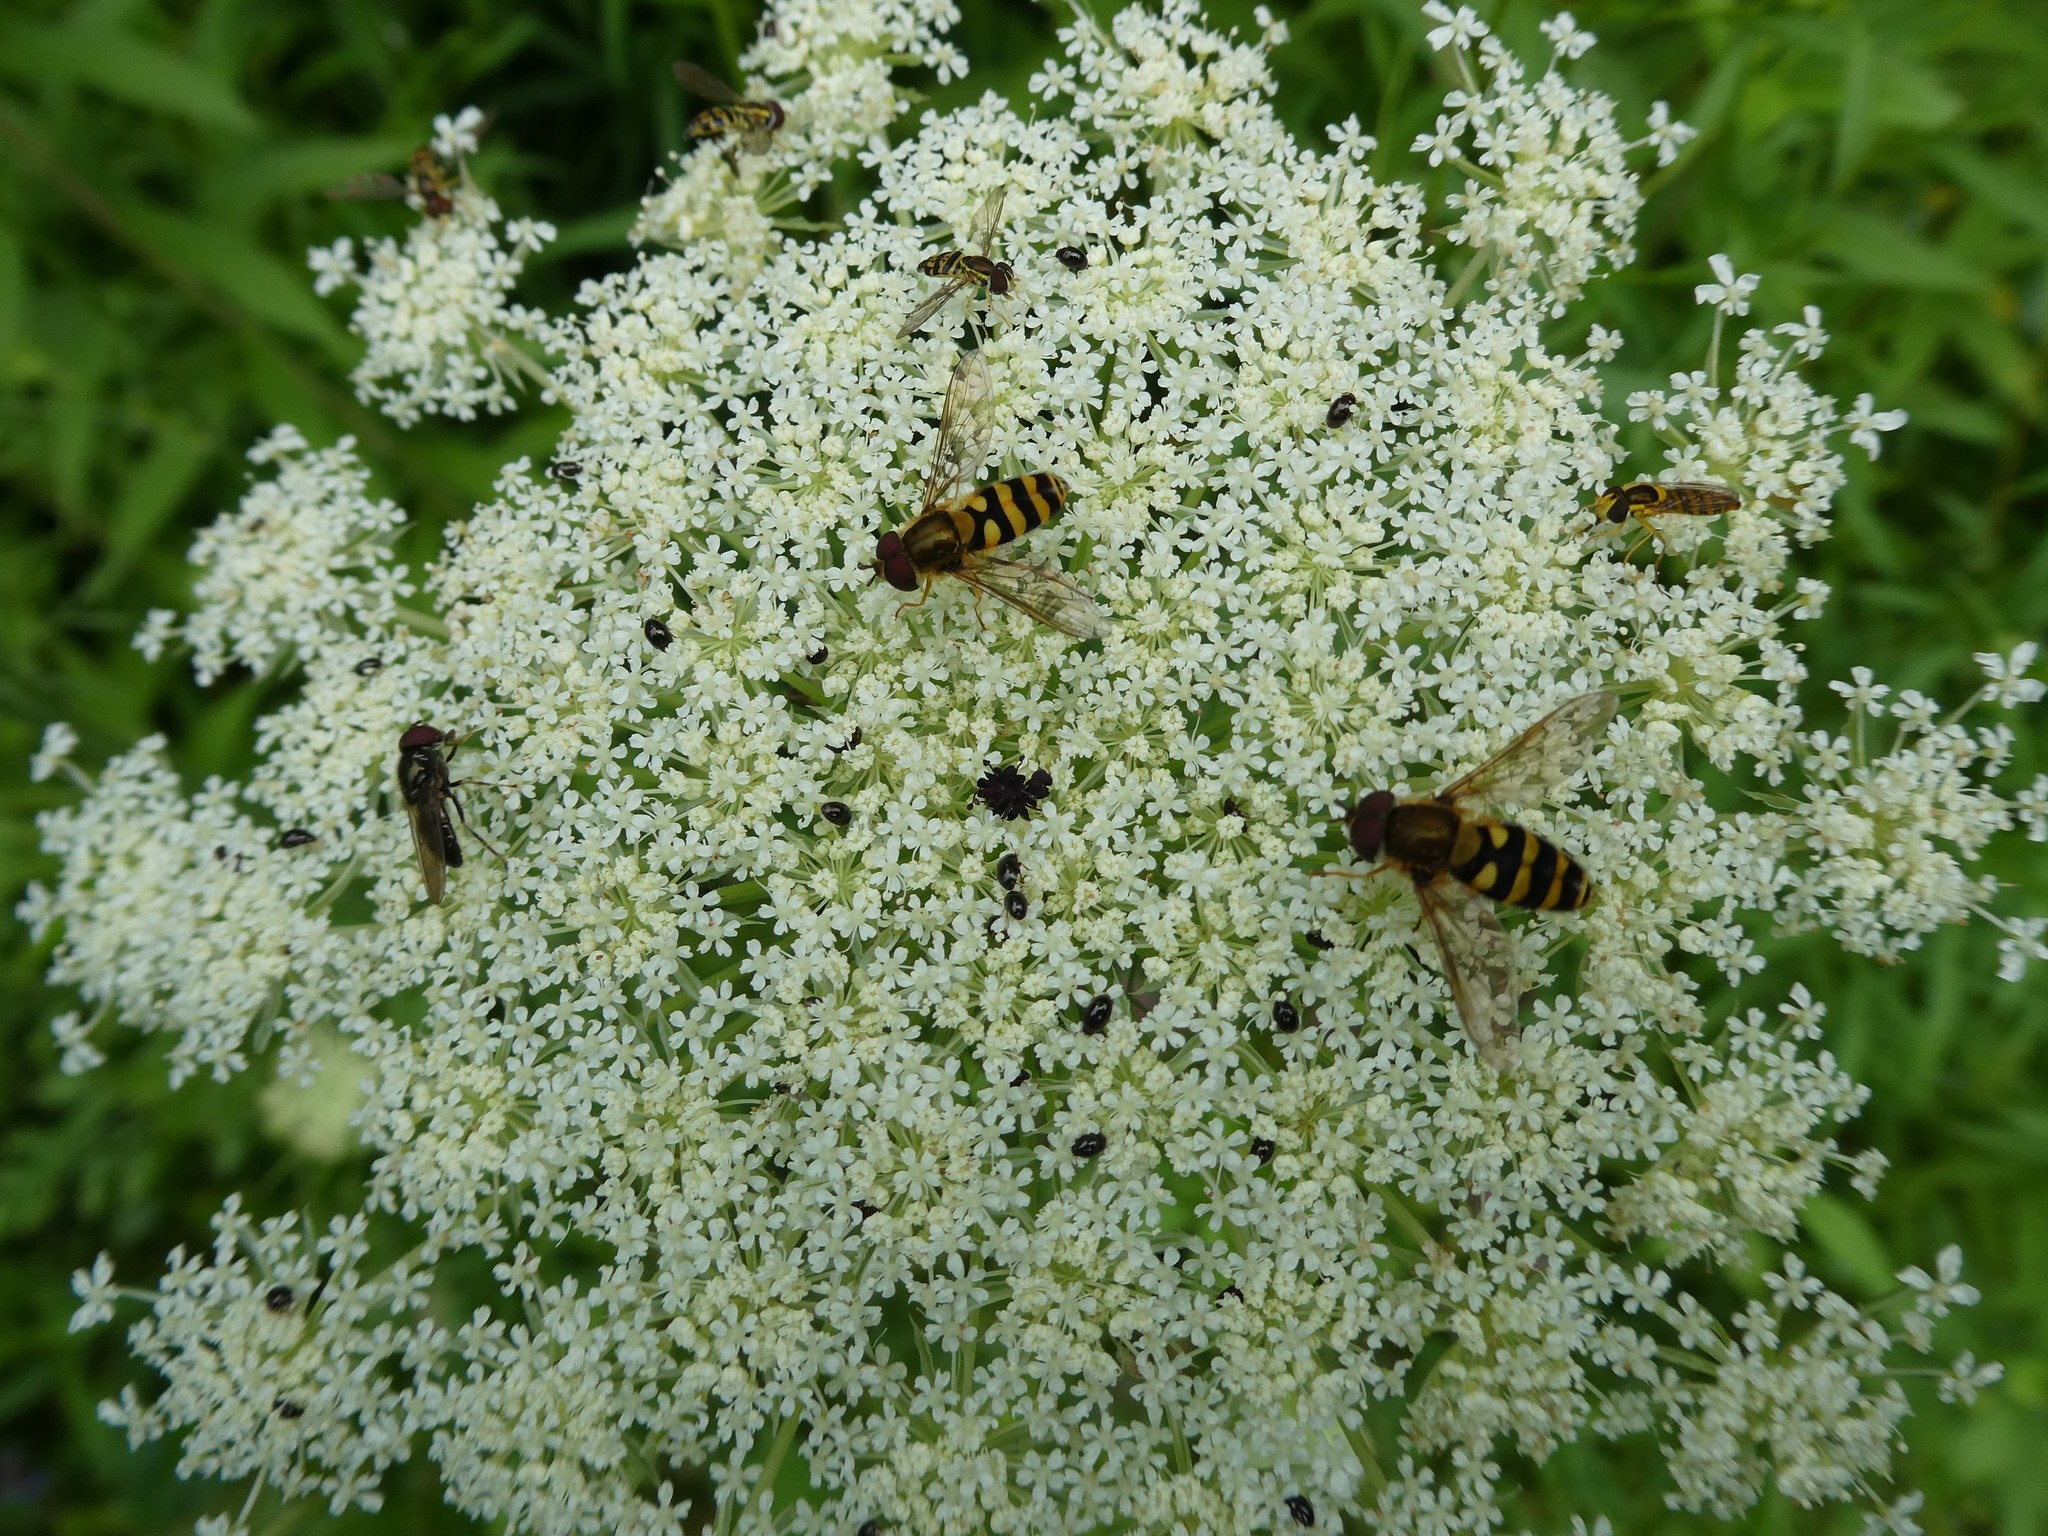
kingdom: Plantae
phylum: Tracheophyta
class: Magnoliopsida
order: Apiales
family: Apiaceae
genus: Daucus
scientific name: Daucus carota
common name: Wild carrot
